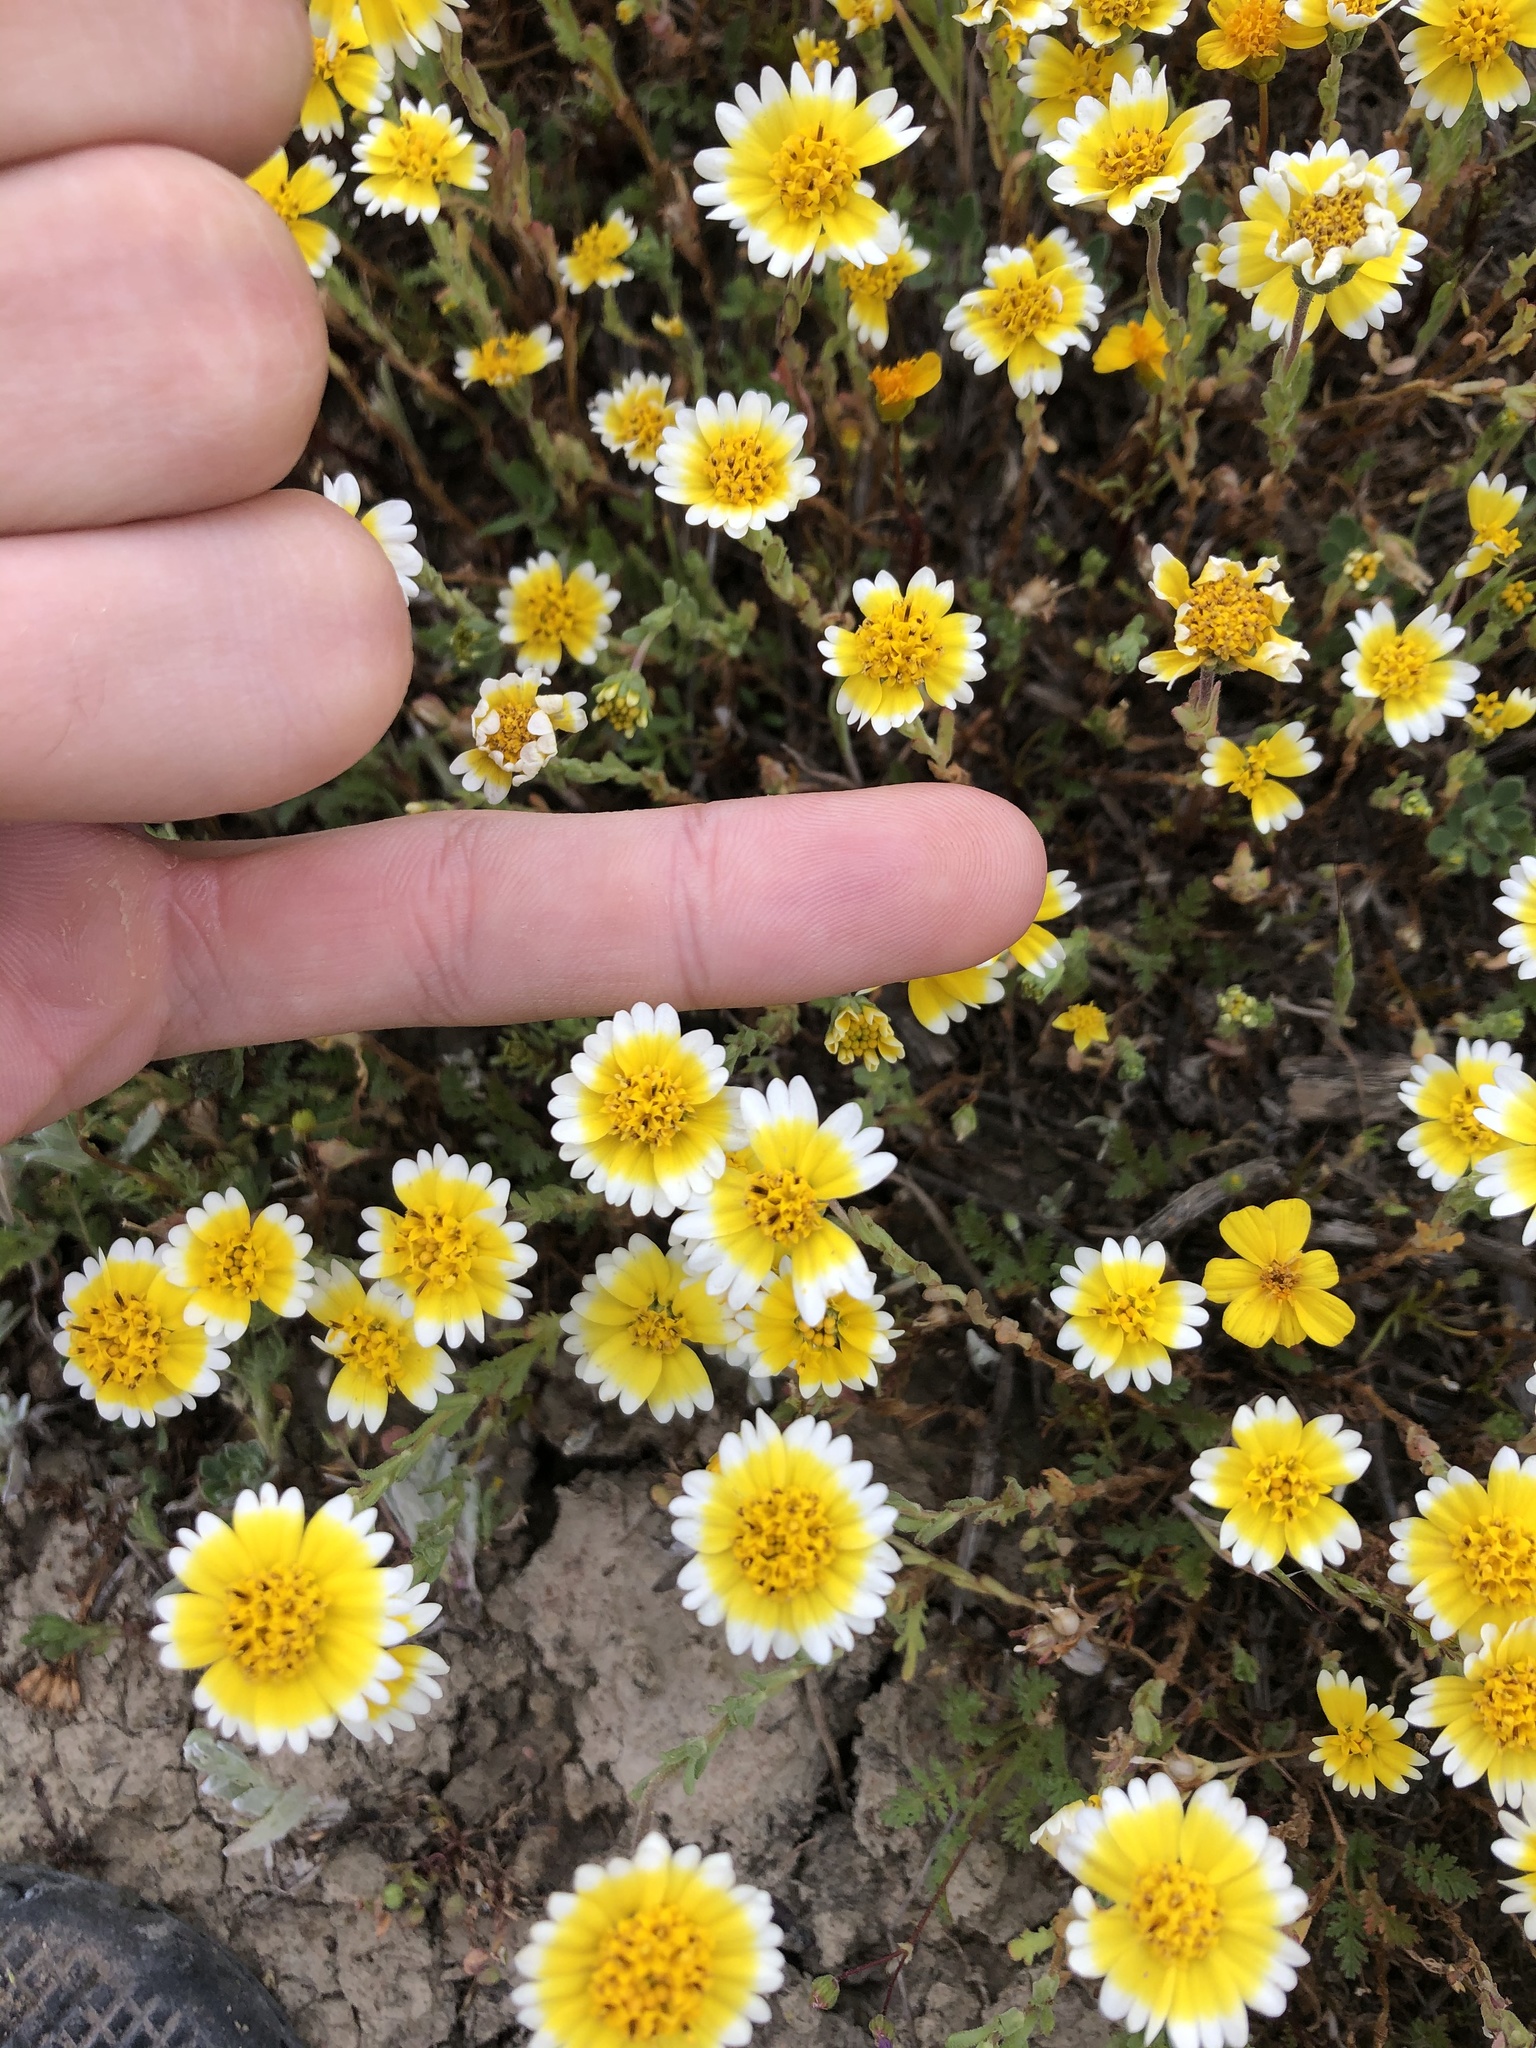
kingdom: Plantae
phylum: Tracheophyta
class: Magnoliopsida
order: Asterales
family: Asteraceae
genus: Layia
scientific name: Layia munzii
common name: Munz's tidy-tips
